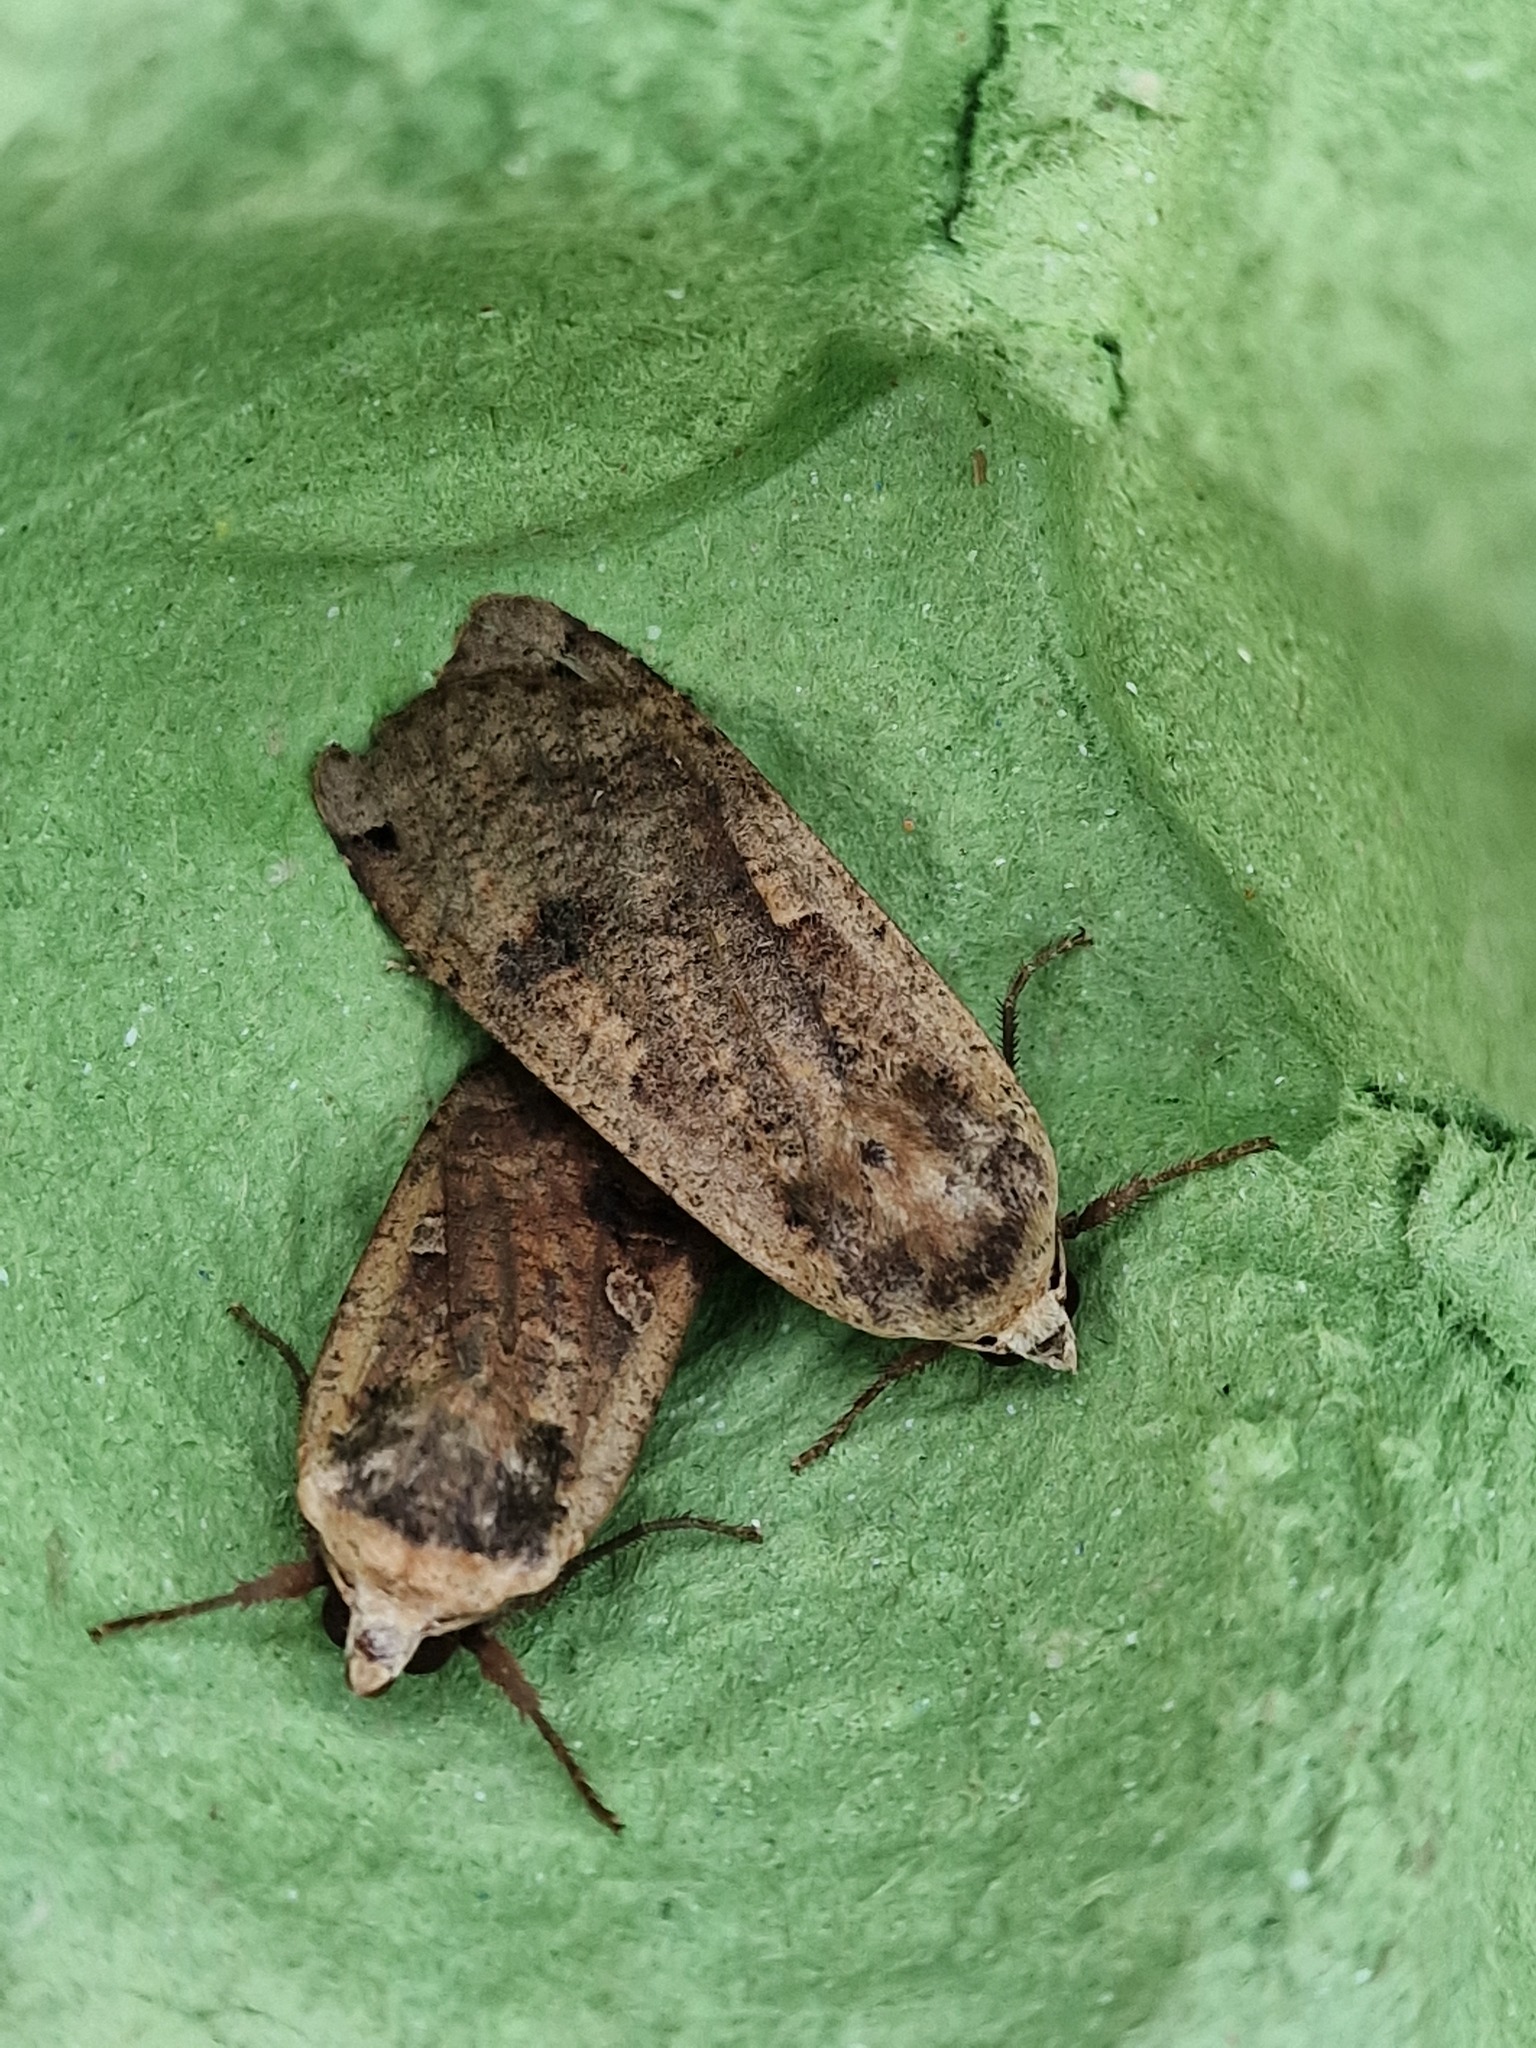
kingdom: Animalia
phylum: Arthropoda
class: Insecta
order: Lepidoptera
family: Noctuidae
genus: Noctua
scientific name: Noctua pronuba
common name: Large yellow underwing
